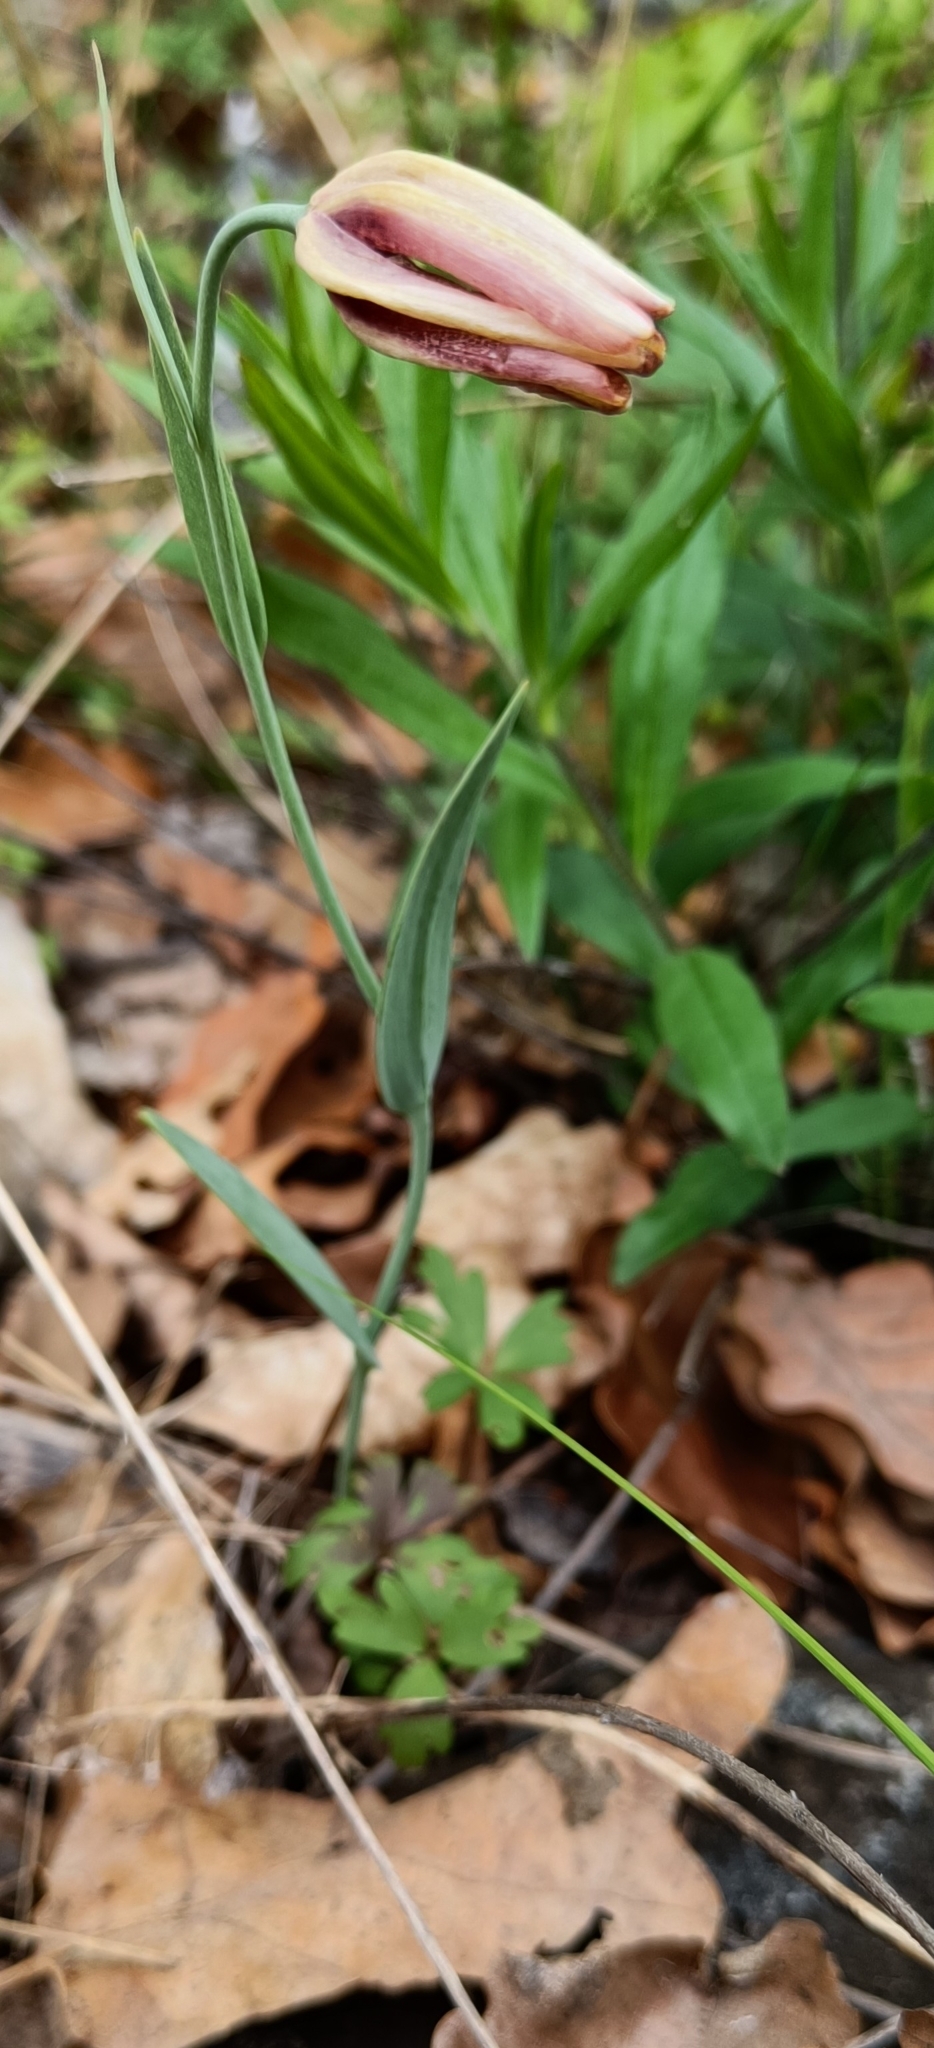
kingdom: Plantae
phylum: Tracheophyta
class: Liliopsida
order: Liliales
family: Liliaceae
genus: Fritillaria
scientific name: Fritillaria gussichiae
